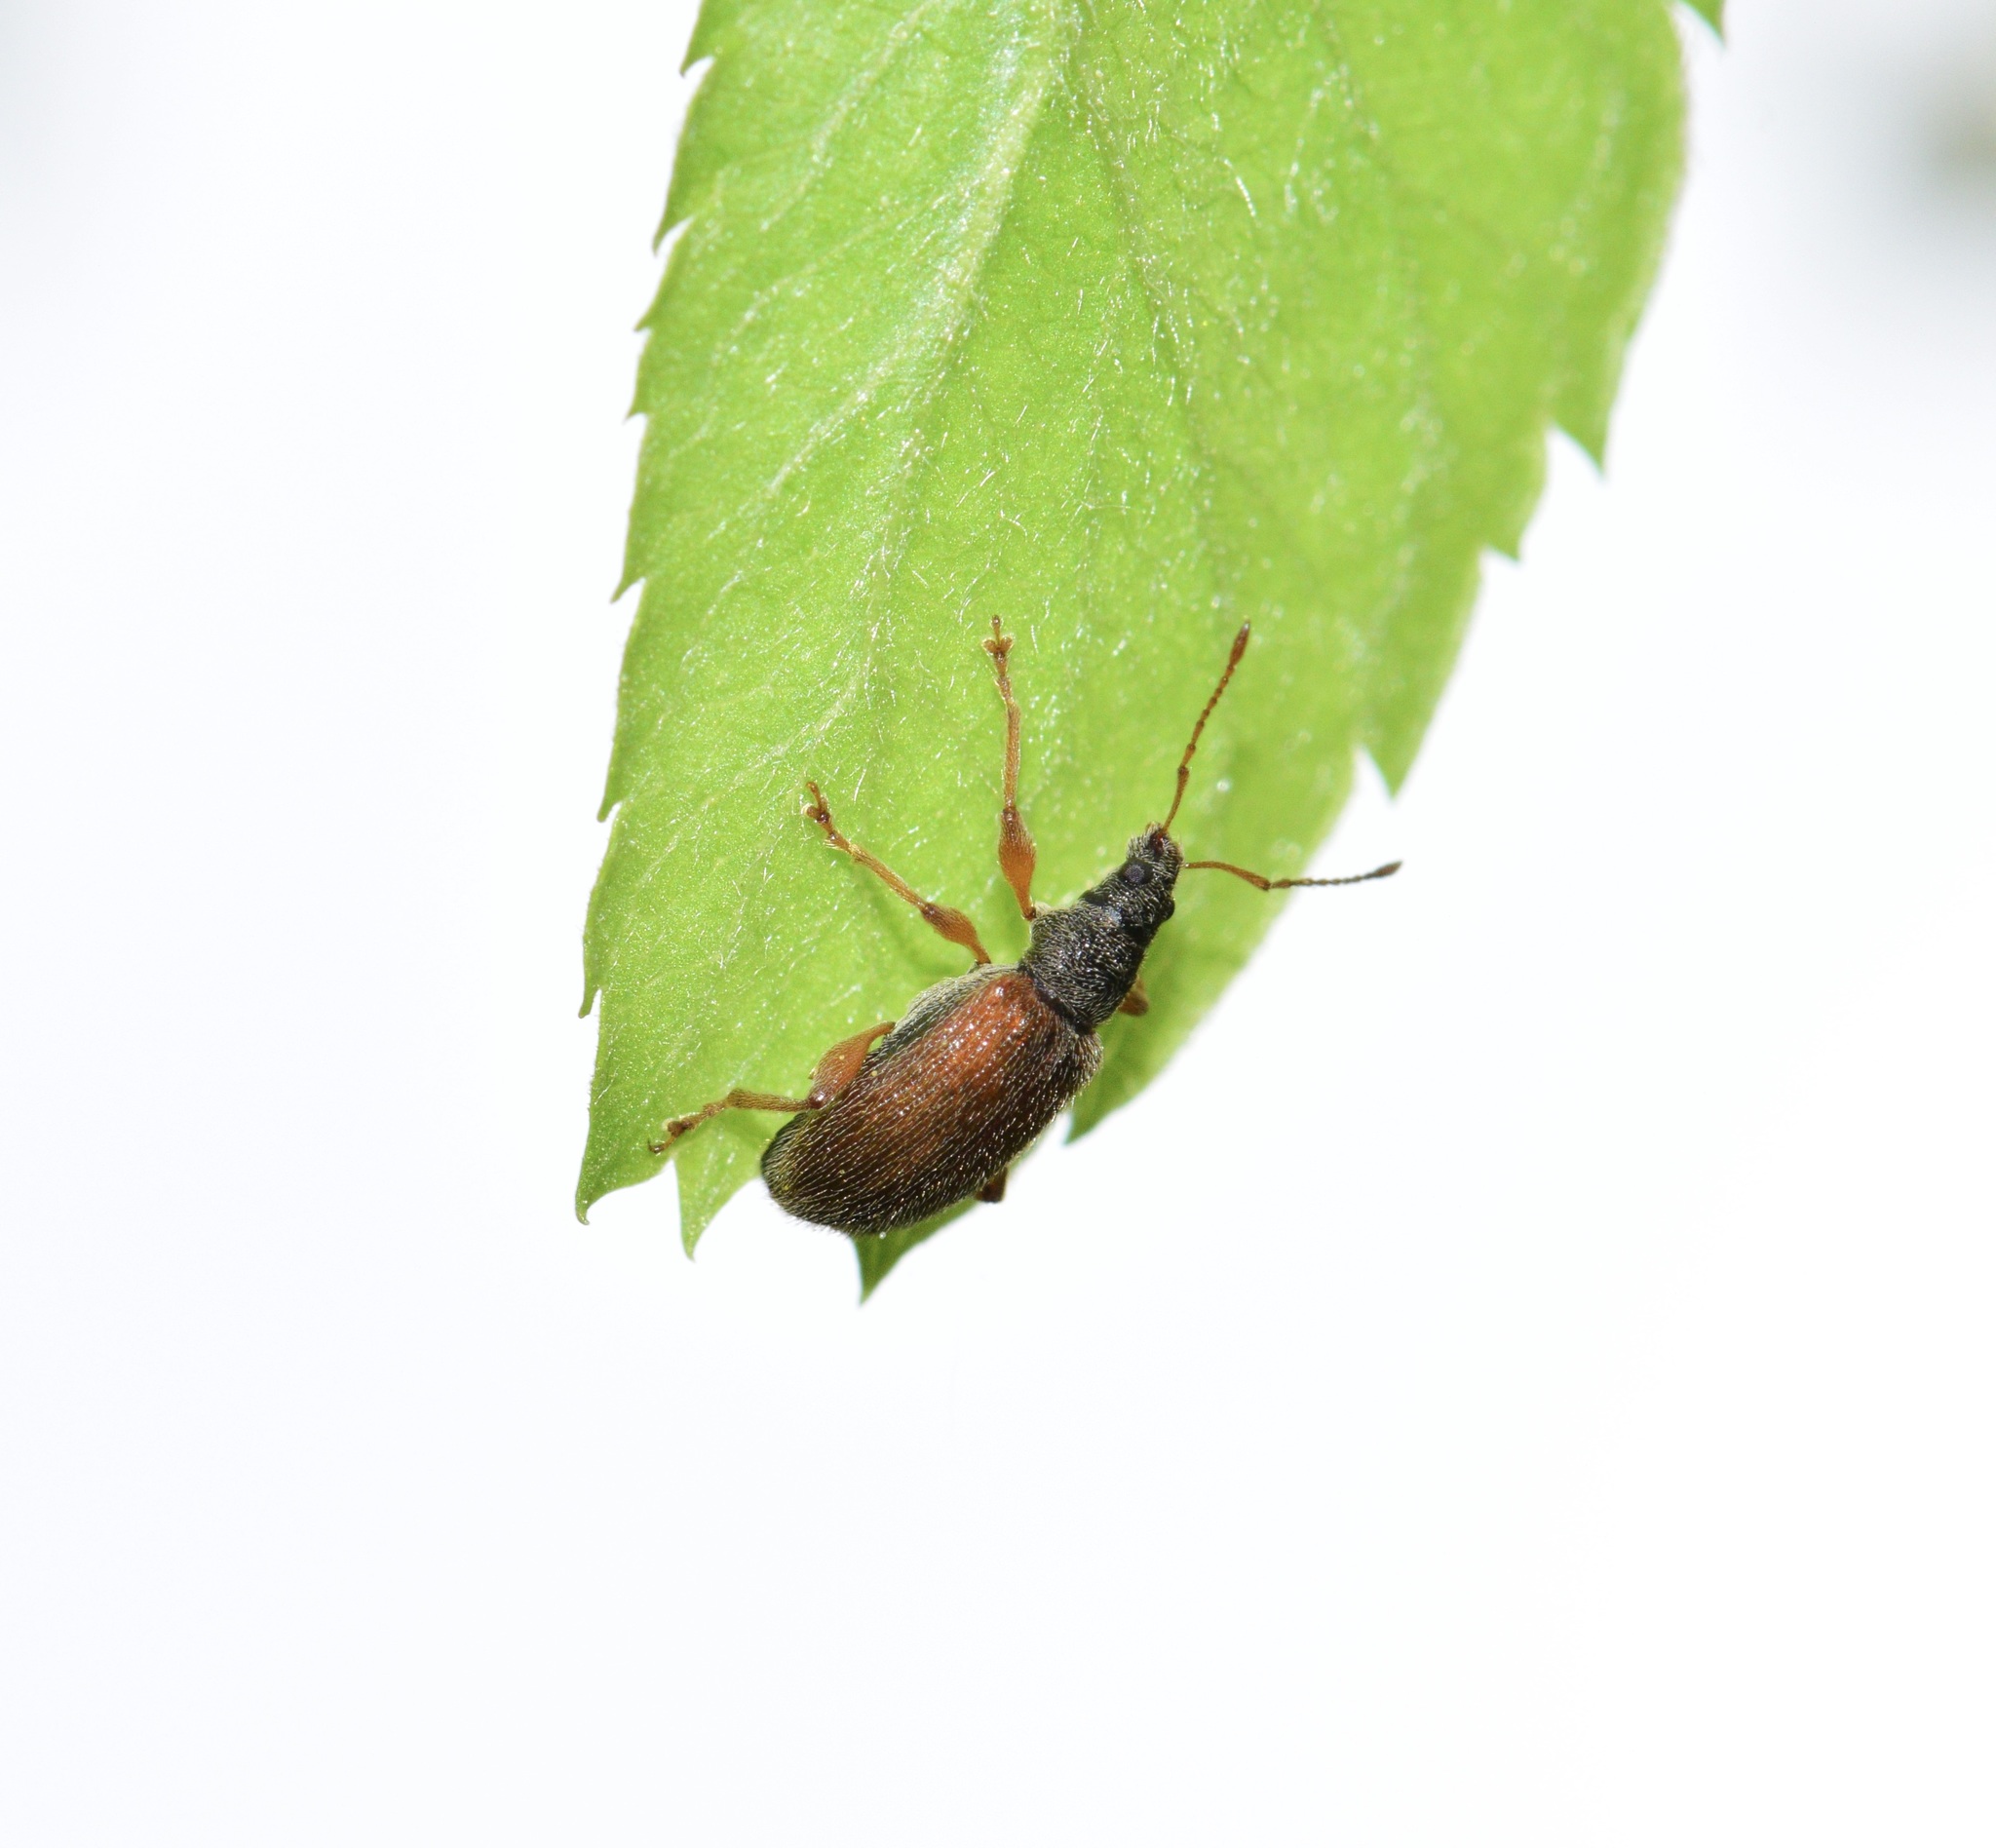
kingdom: Animalia
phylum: Arthropoda
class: Insecta
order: Coleoptera
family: Curculionidae
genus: Phyllobius
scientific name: Phyllobius oblongus
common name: Brown leaf weevil
